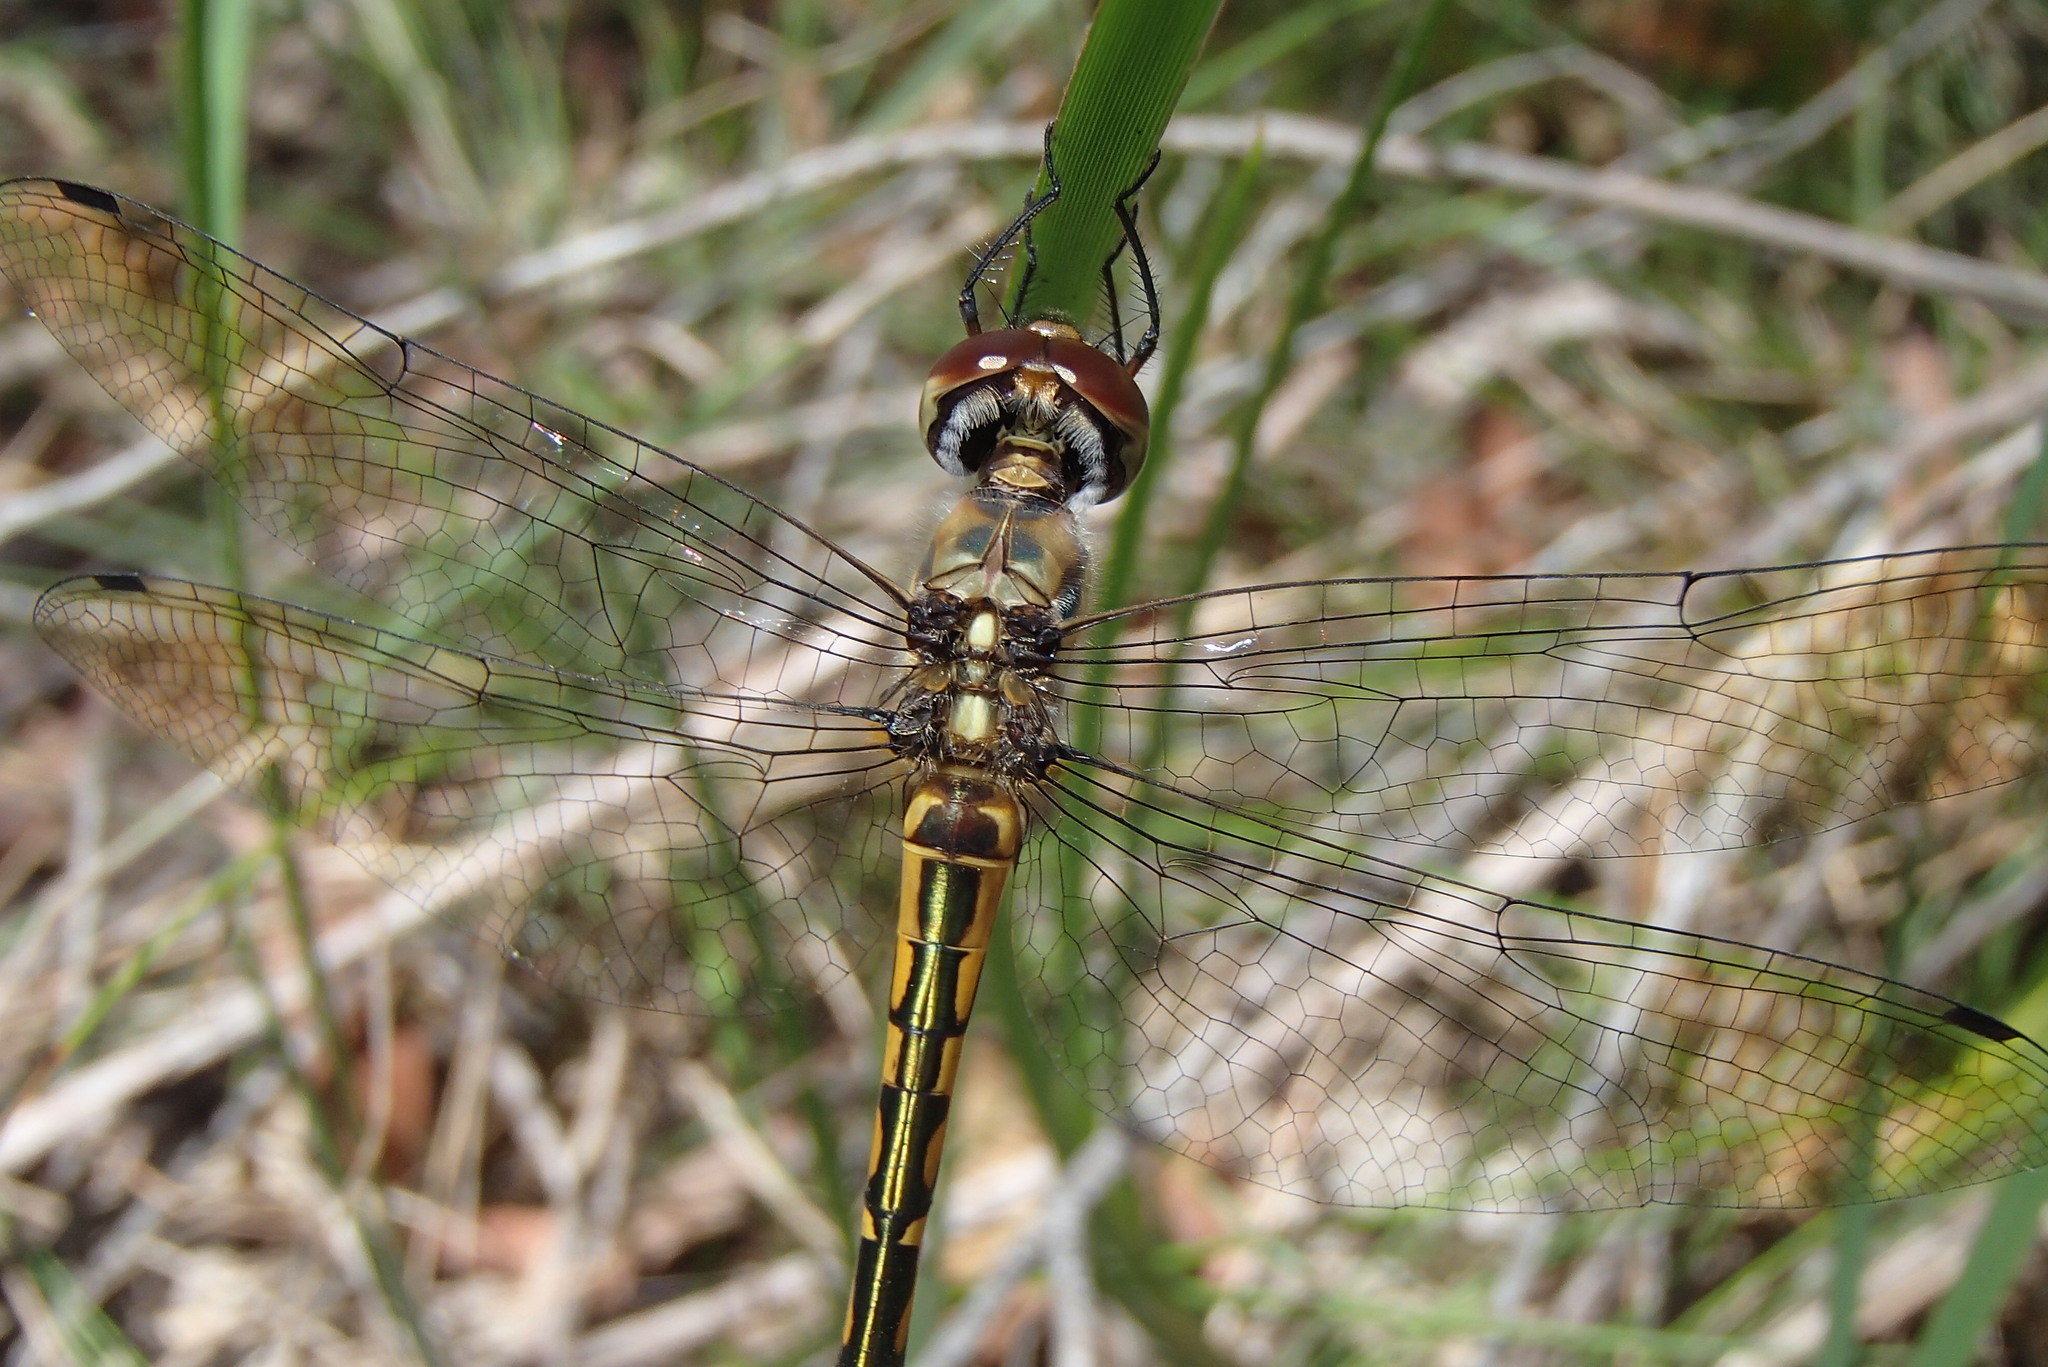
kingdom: Animalia
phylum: Arthropoda
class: Insecta
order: Odonata
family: Corduliidae
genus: Hemicordulia
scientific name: Hemicordulia australiae
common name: Sentry dragonfly
